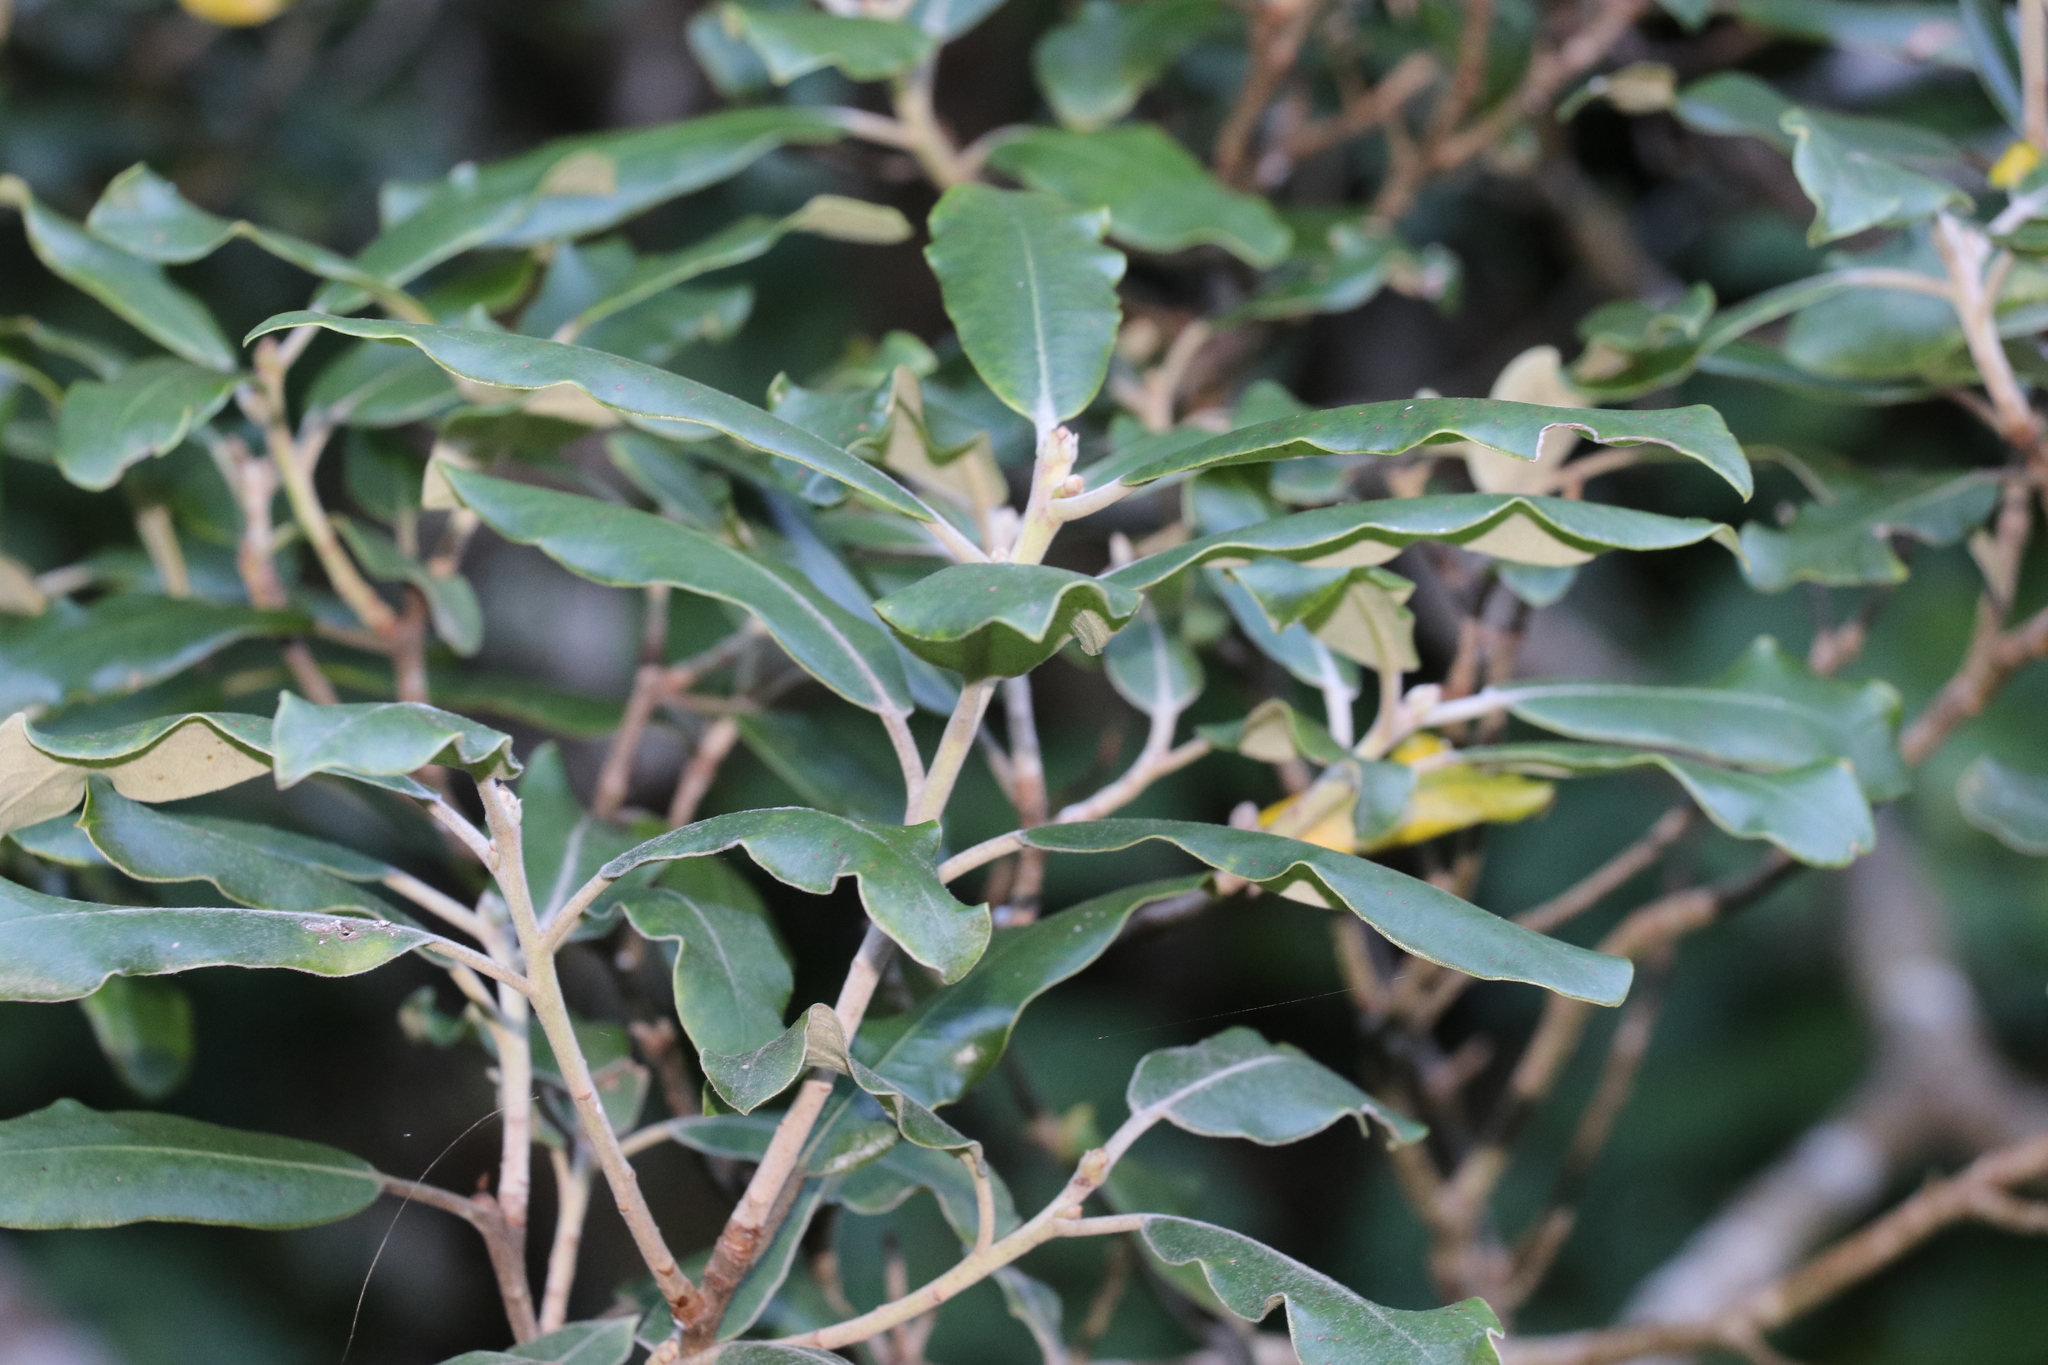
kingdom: Plantae
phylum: Tracheophyta
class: Magnoliopsida
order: Apiales
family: Pittosporaceae
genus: Pittosporum
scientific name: Pittosporum crassifolium
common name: Karo
